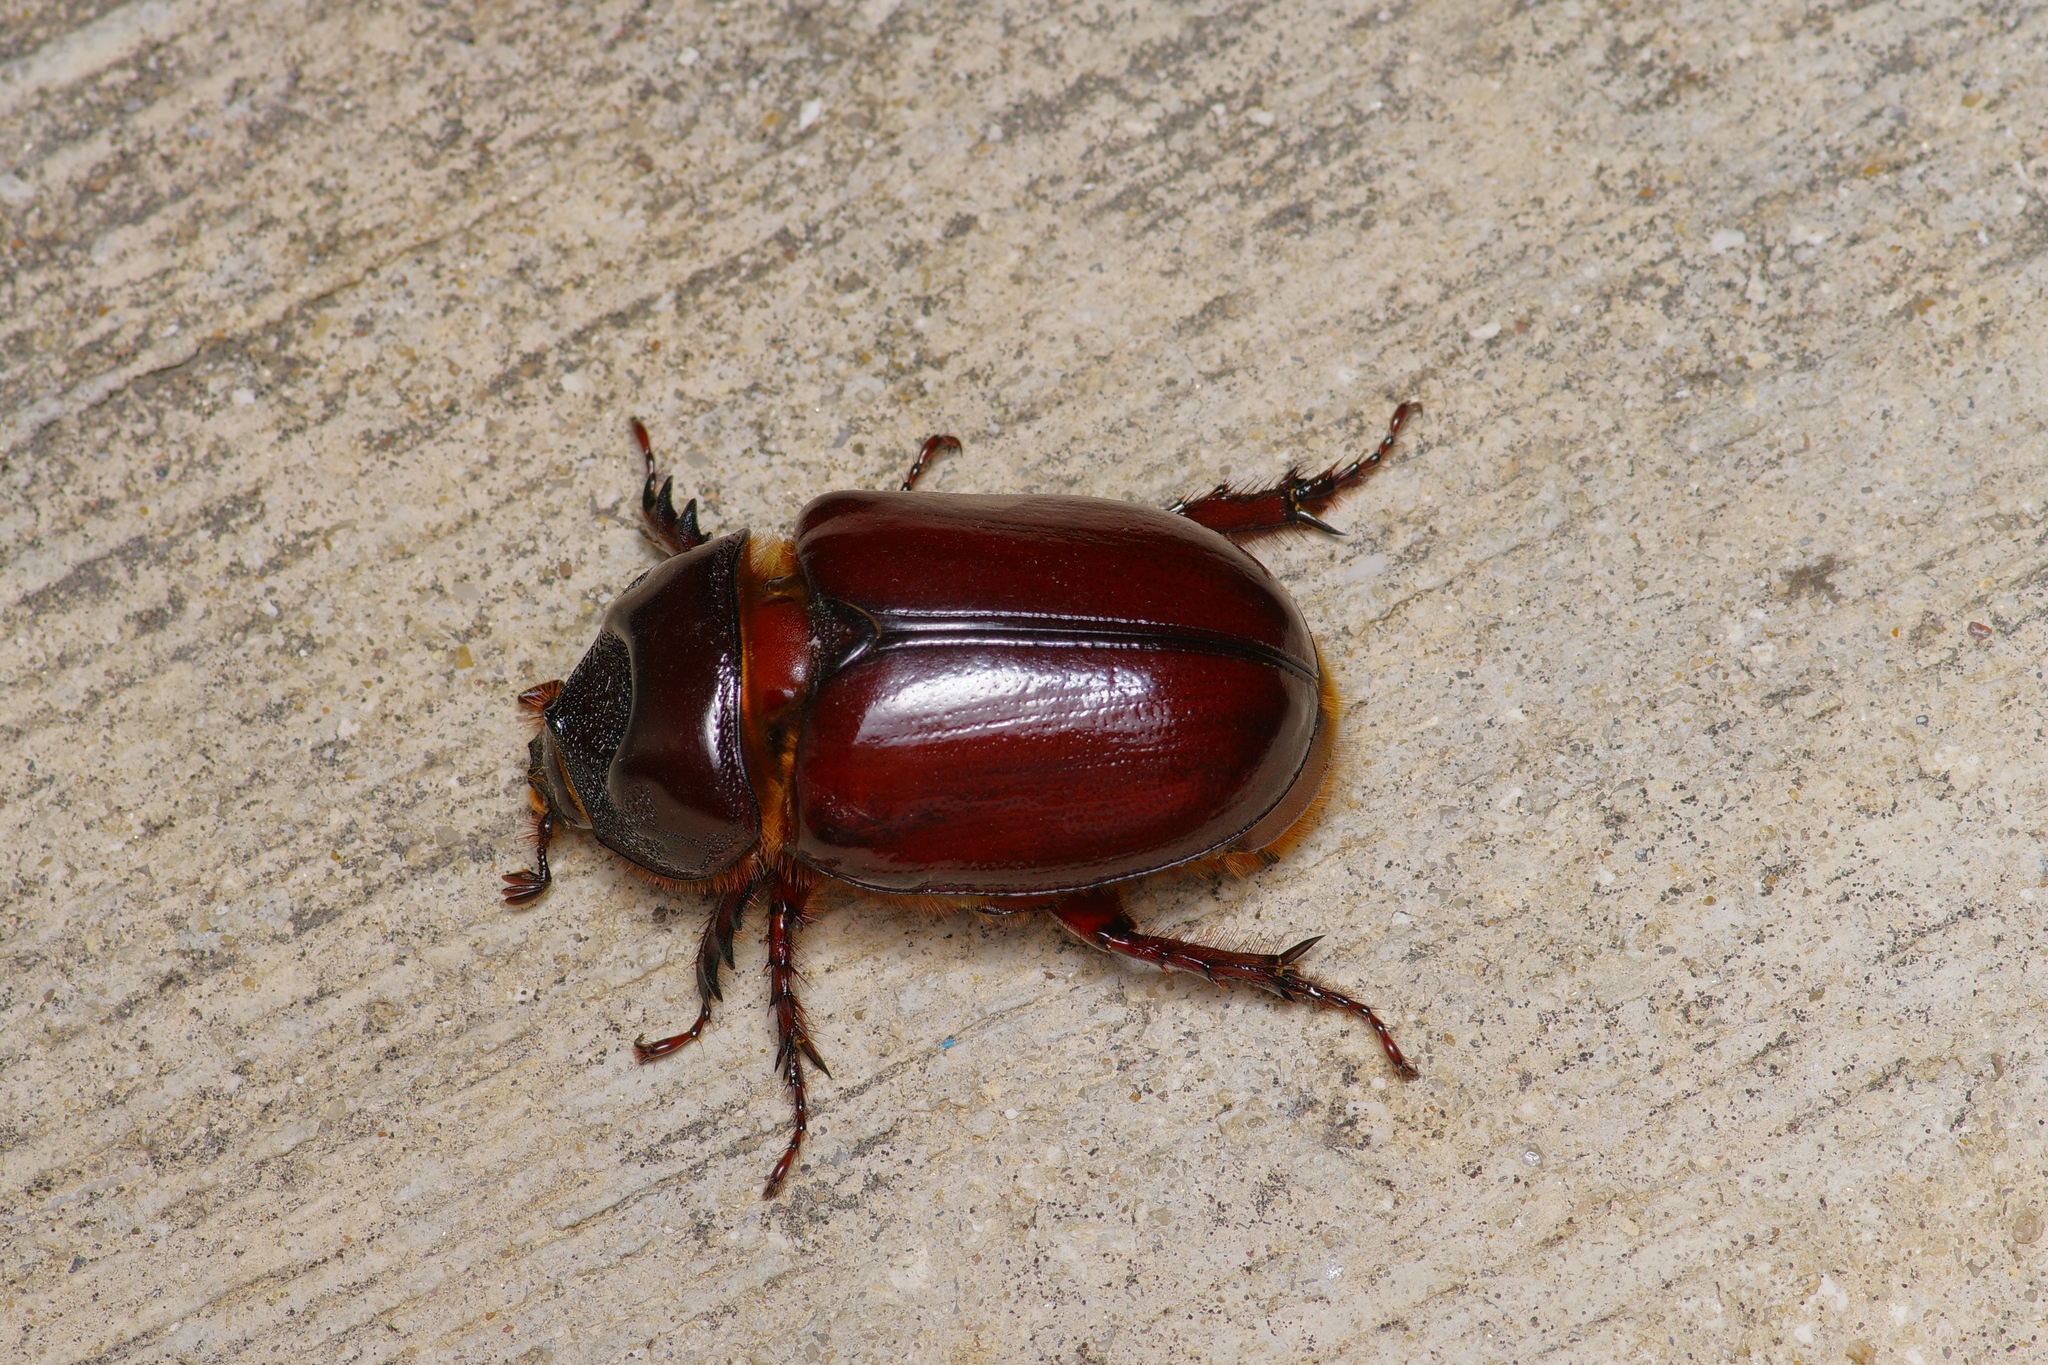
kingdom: Animalia
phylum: Arthropoda
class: Insecta
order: Coleoptera
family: Scarabaeidae
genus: Strategus
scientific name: Strategus aloeus
